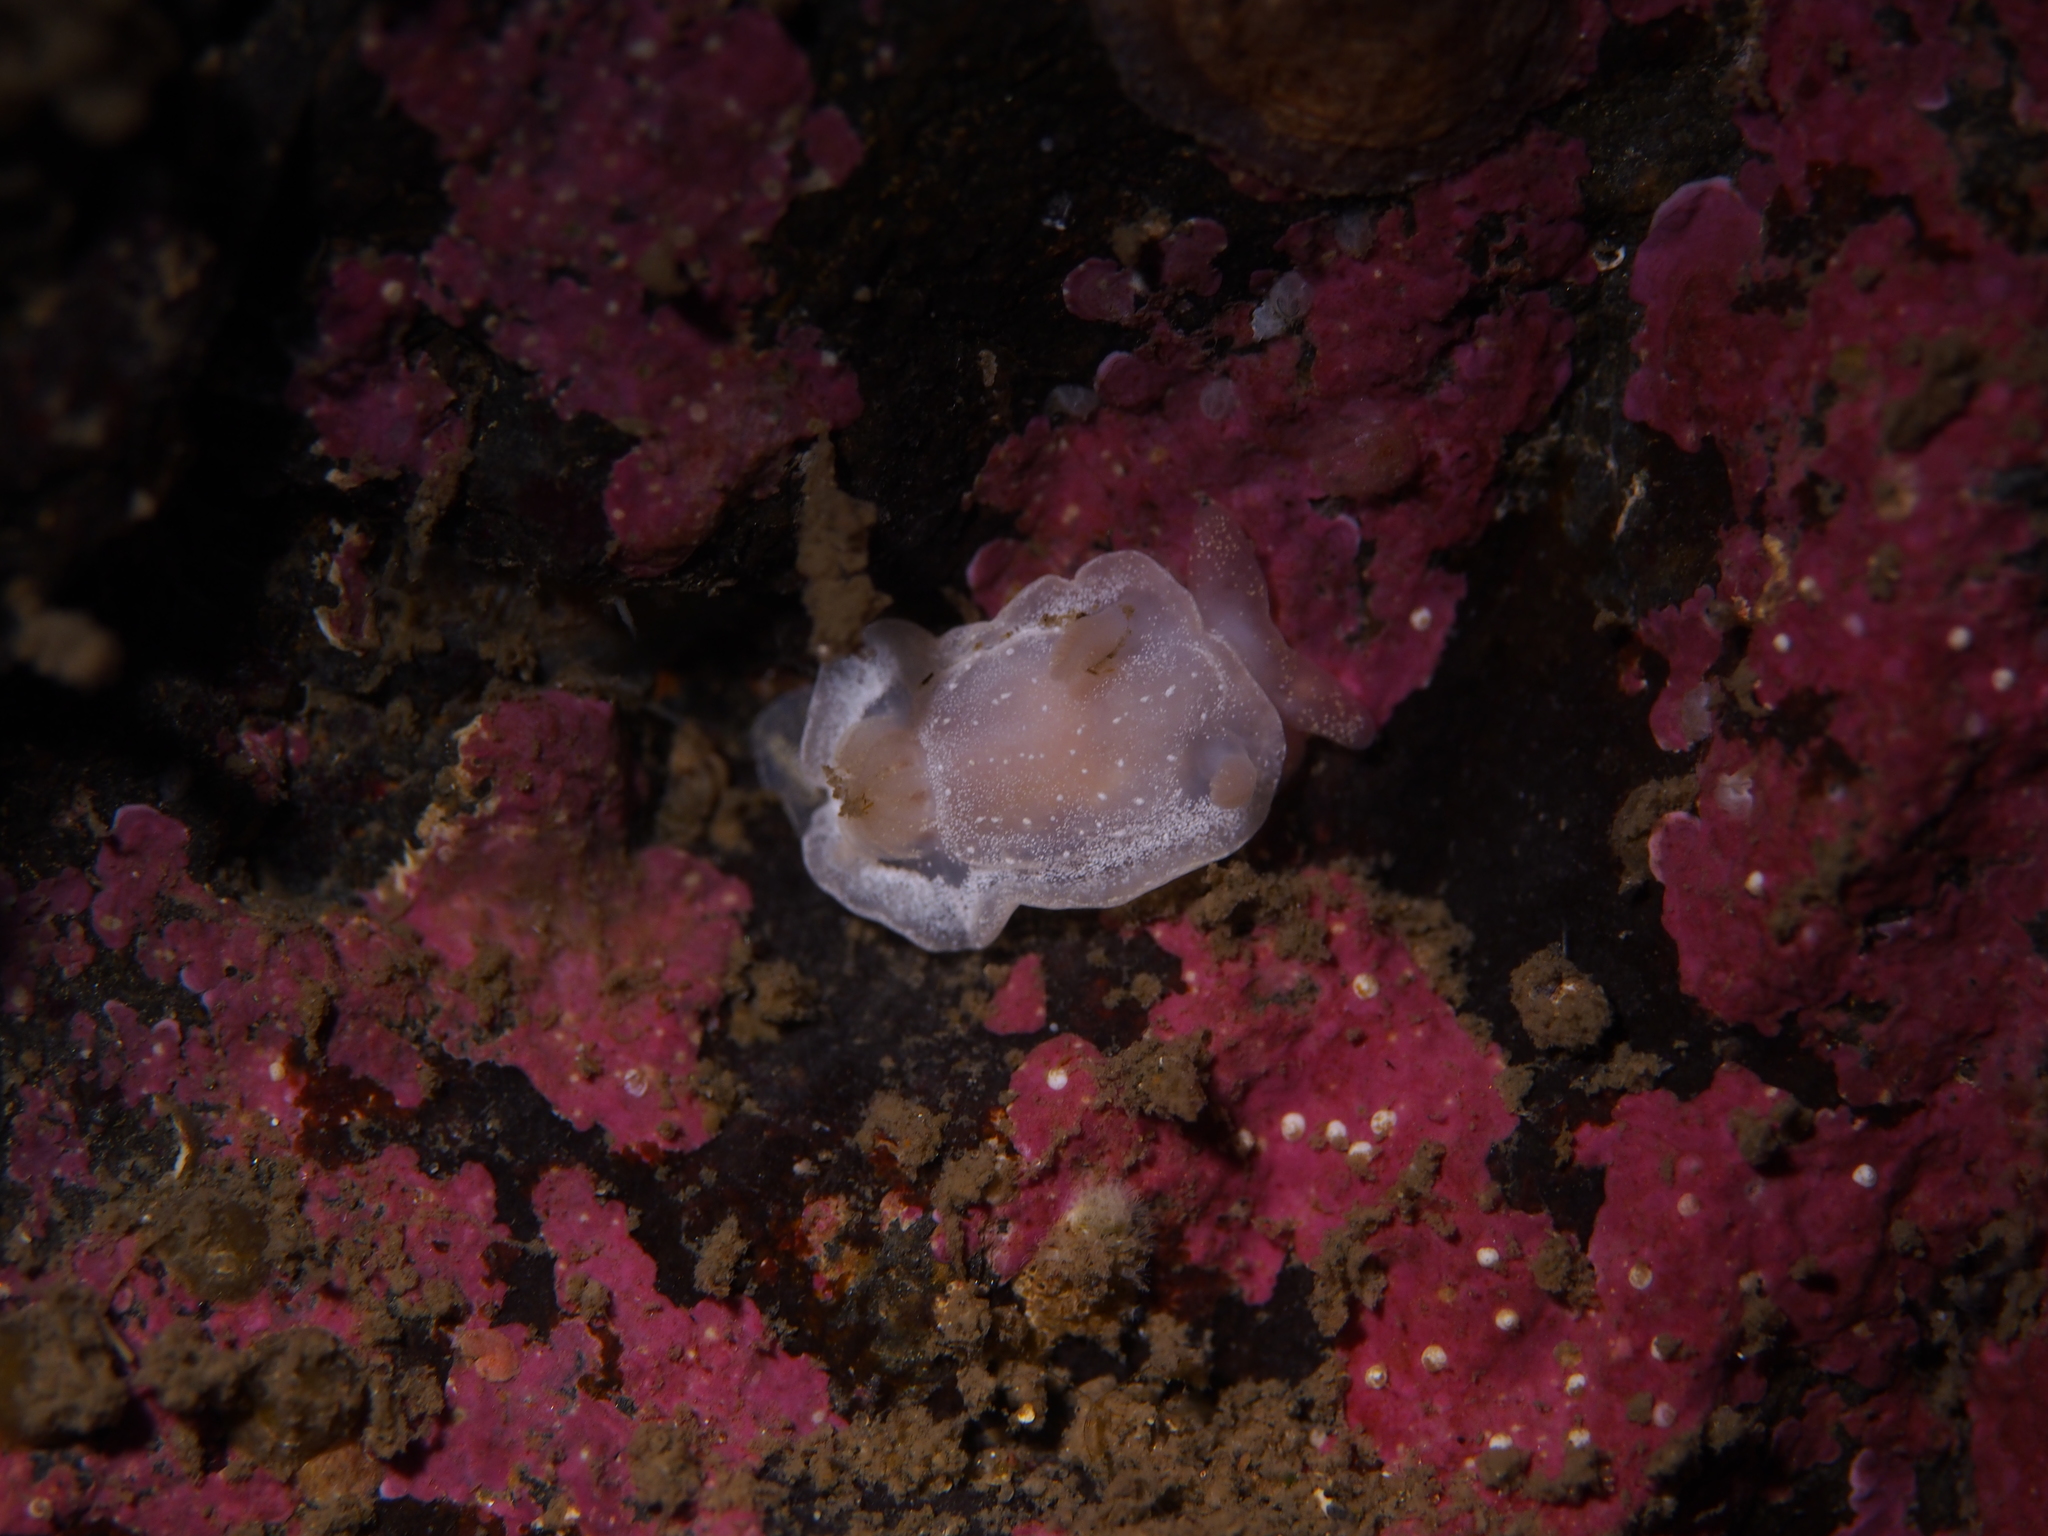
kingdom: Animalia
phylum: Mollusca
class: Gastropoda
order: Nudibranchia
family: Goniodorididae
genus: Okenia
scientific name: Okenia
